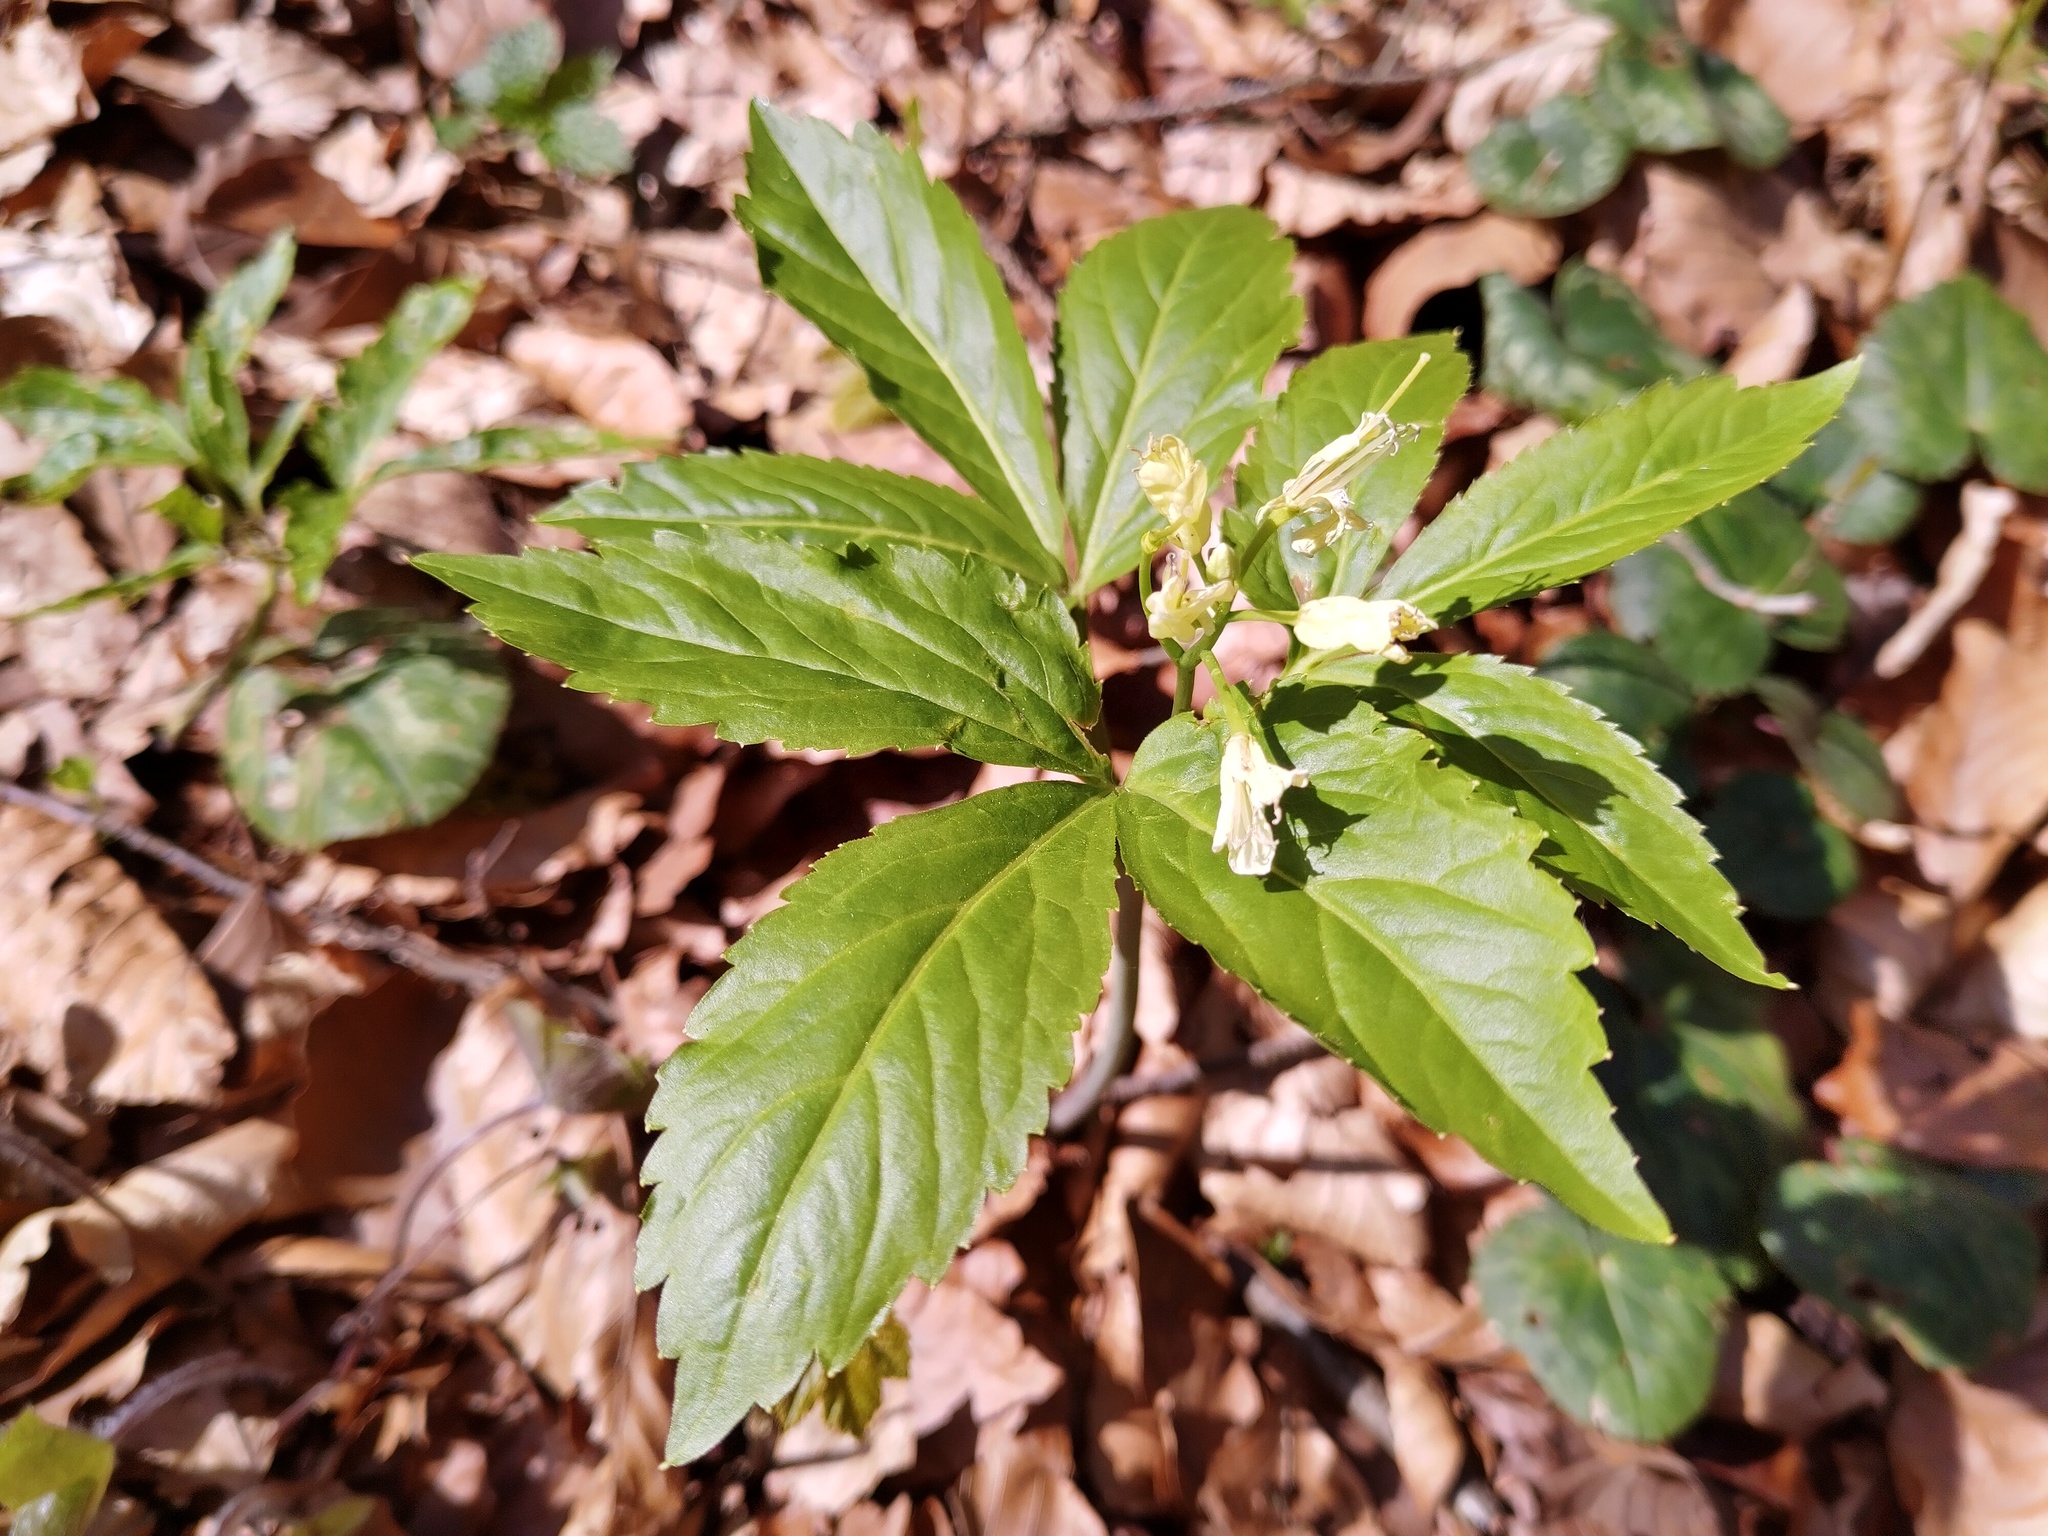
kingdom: Plantae
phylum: Tracheophyta
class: Magnoliopsida
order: Brassicales
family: Brassicaceae
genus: Cardamine
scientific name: Cardamine enneaphyllos
